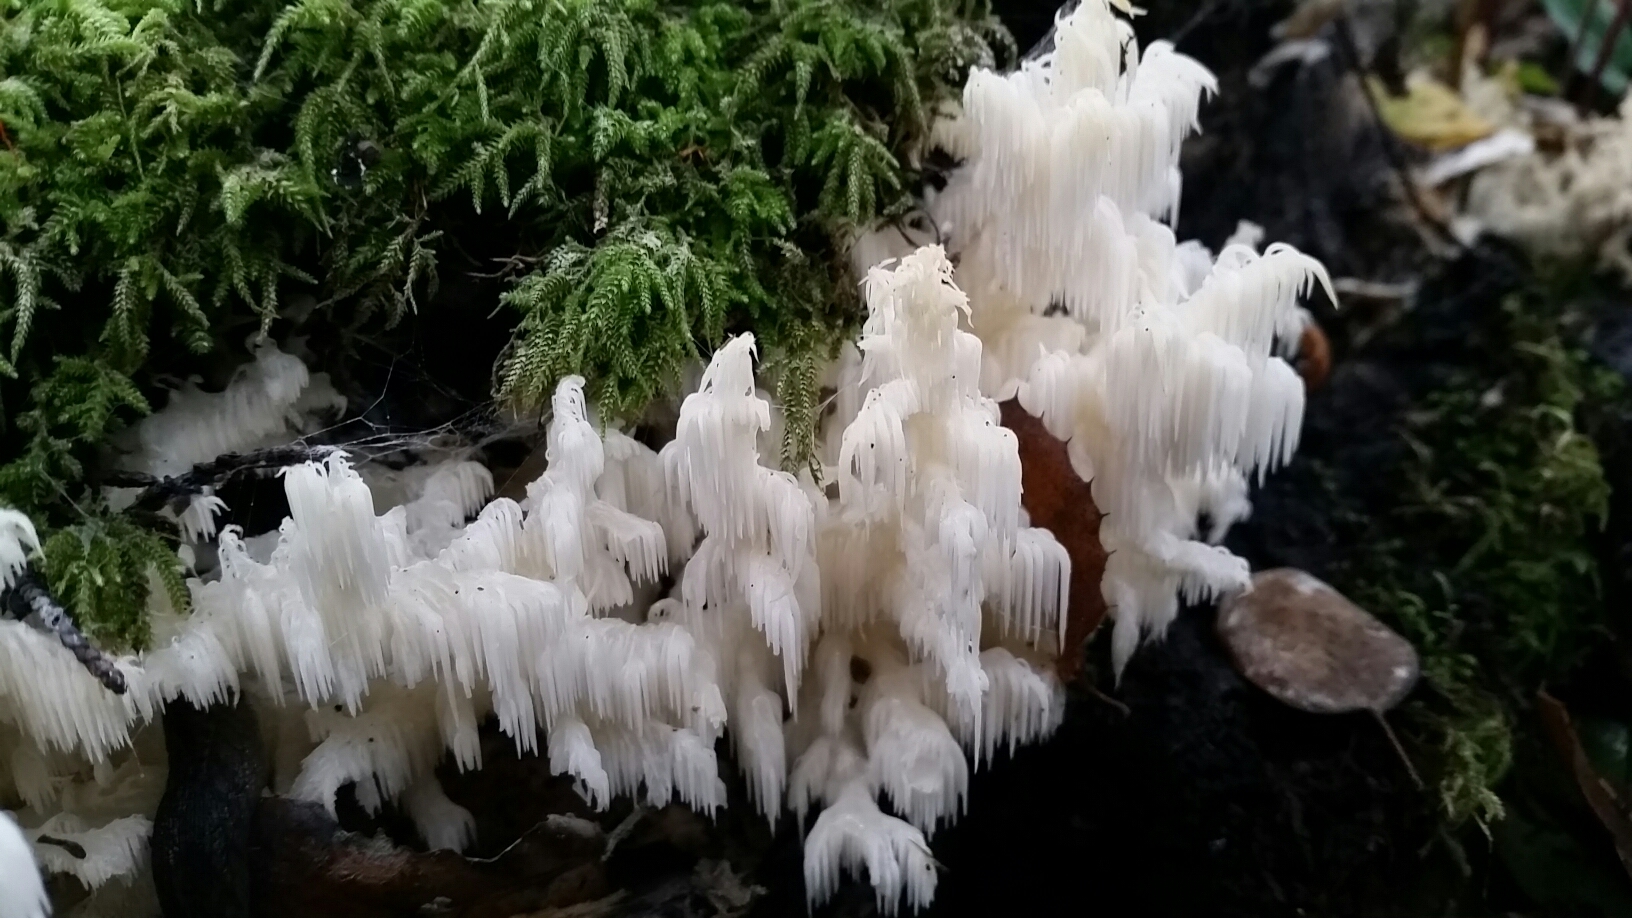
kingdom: Fungi
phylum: Basidiomycota
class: Agaricomycetes
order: Russulales
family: Hericiaceae
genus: Hericium
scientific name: Hericium coralloides
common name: Coral tooth
